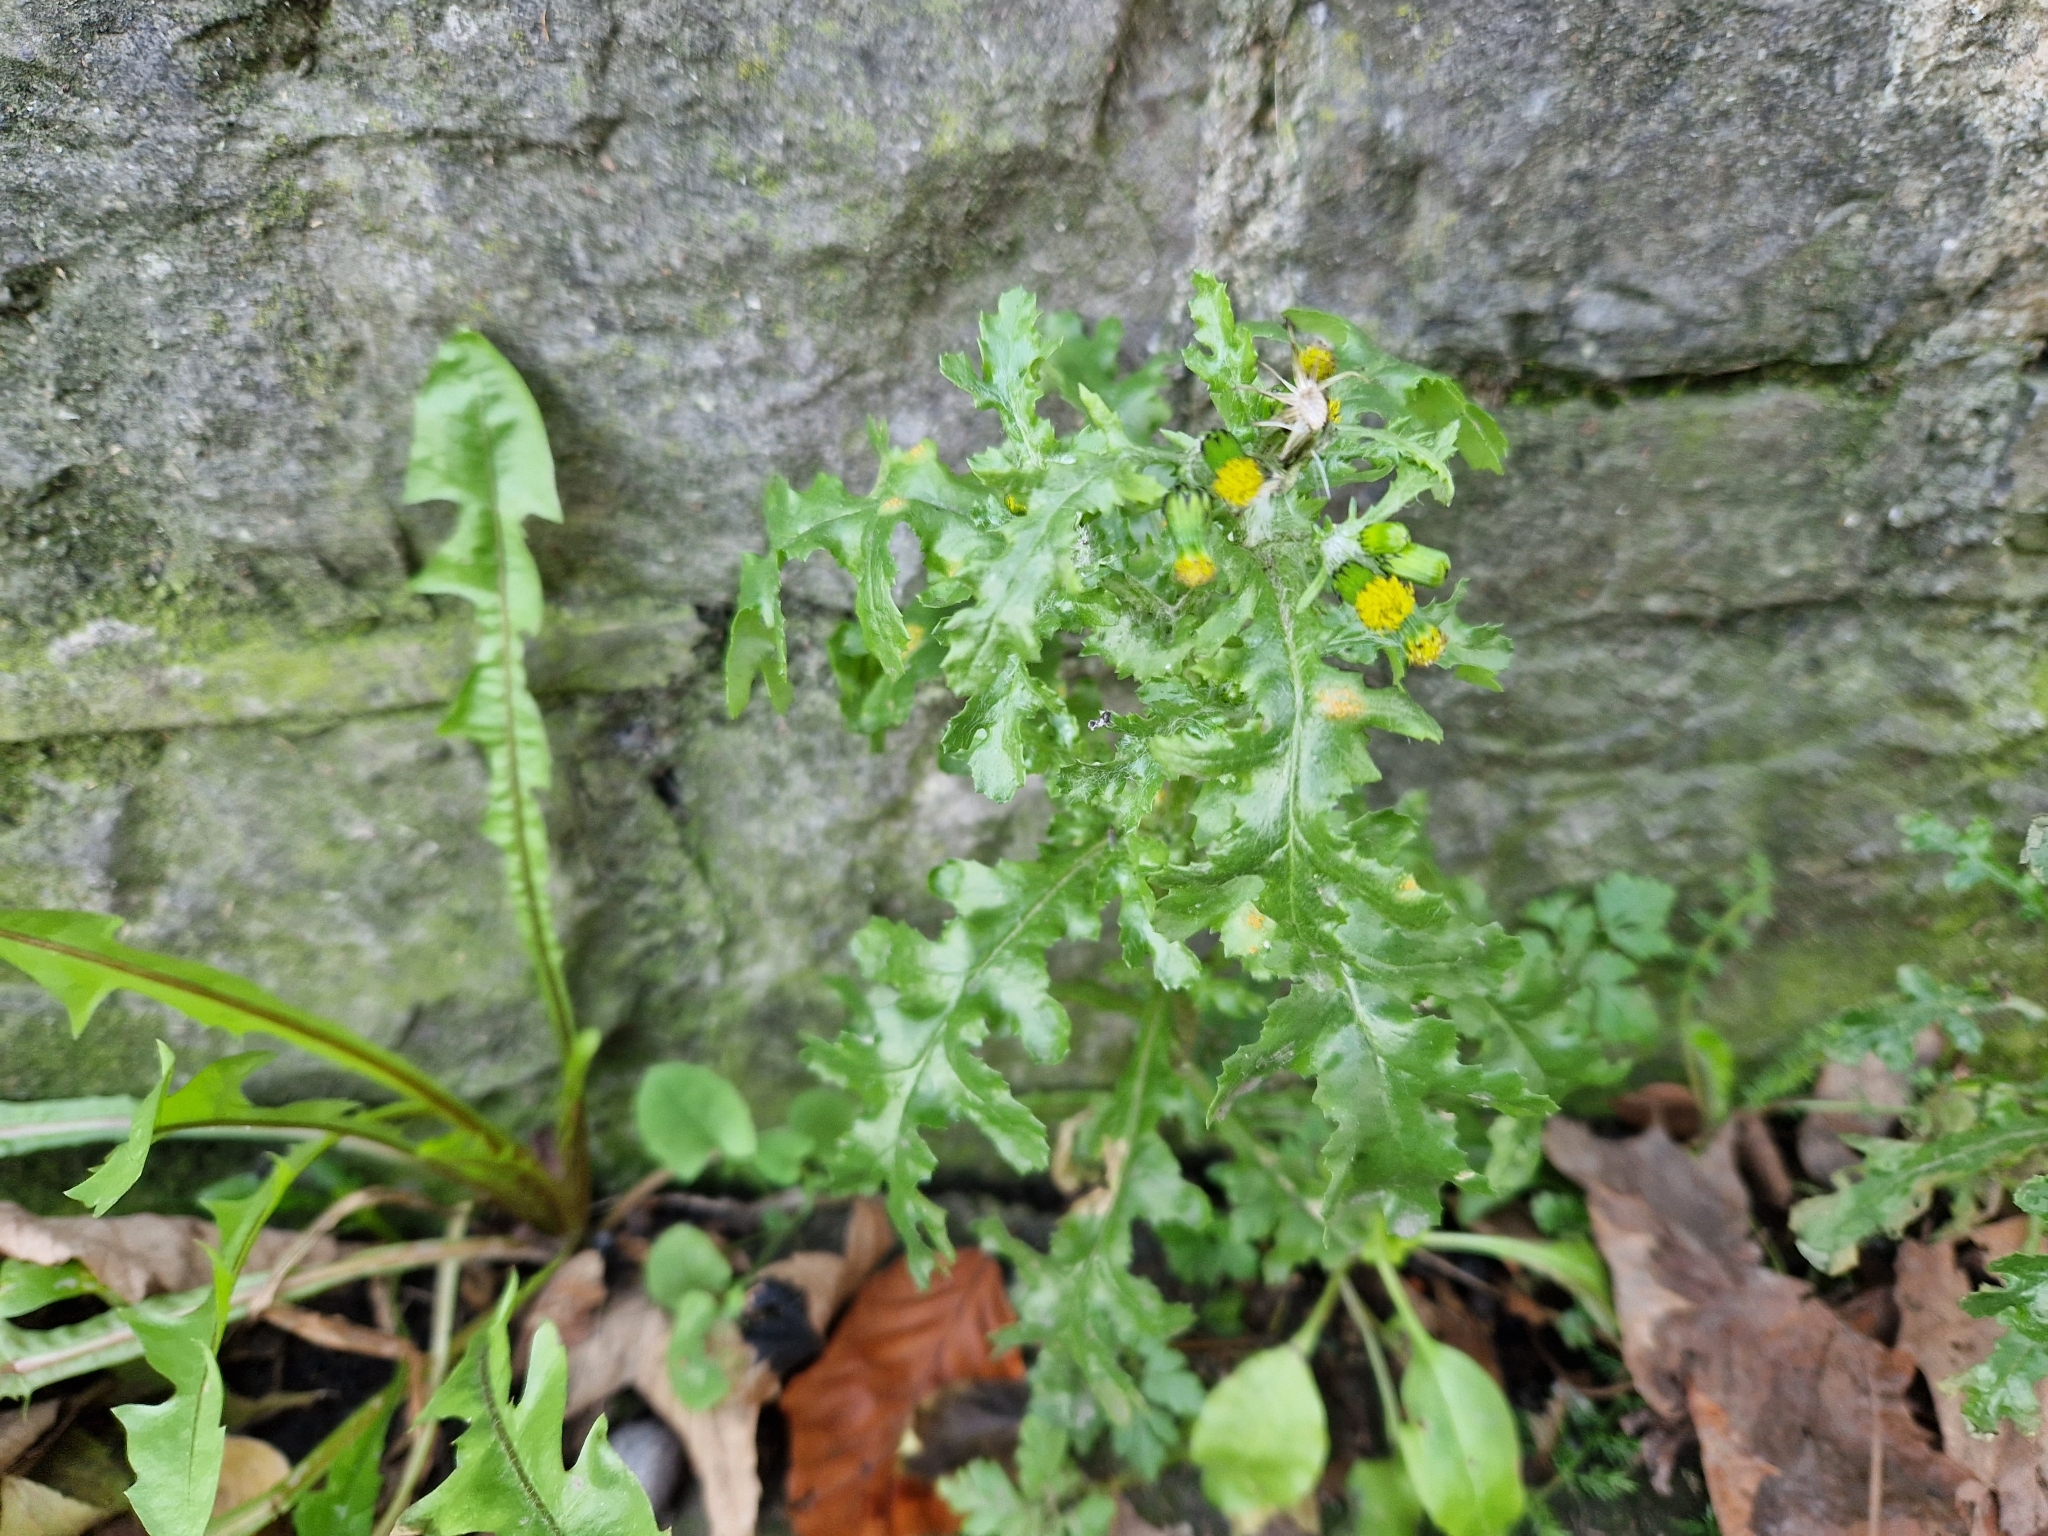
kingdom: Plantae
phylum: Tracheophyta
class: Magnoliopsida
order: Asterales
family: Asteraceae
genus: Senecio
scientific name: Senecio vulgaris
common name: Old-man-in-the-spring
